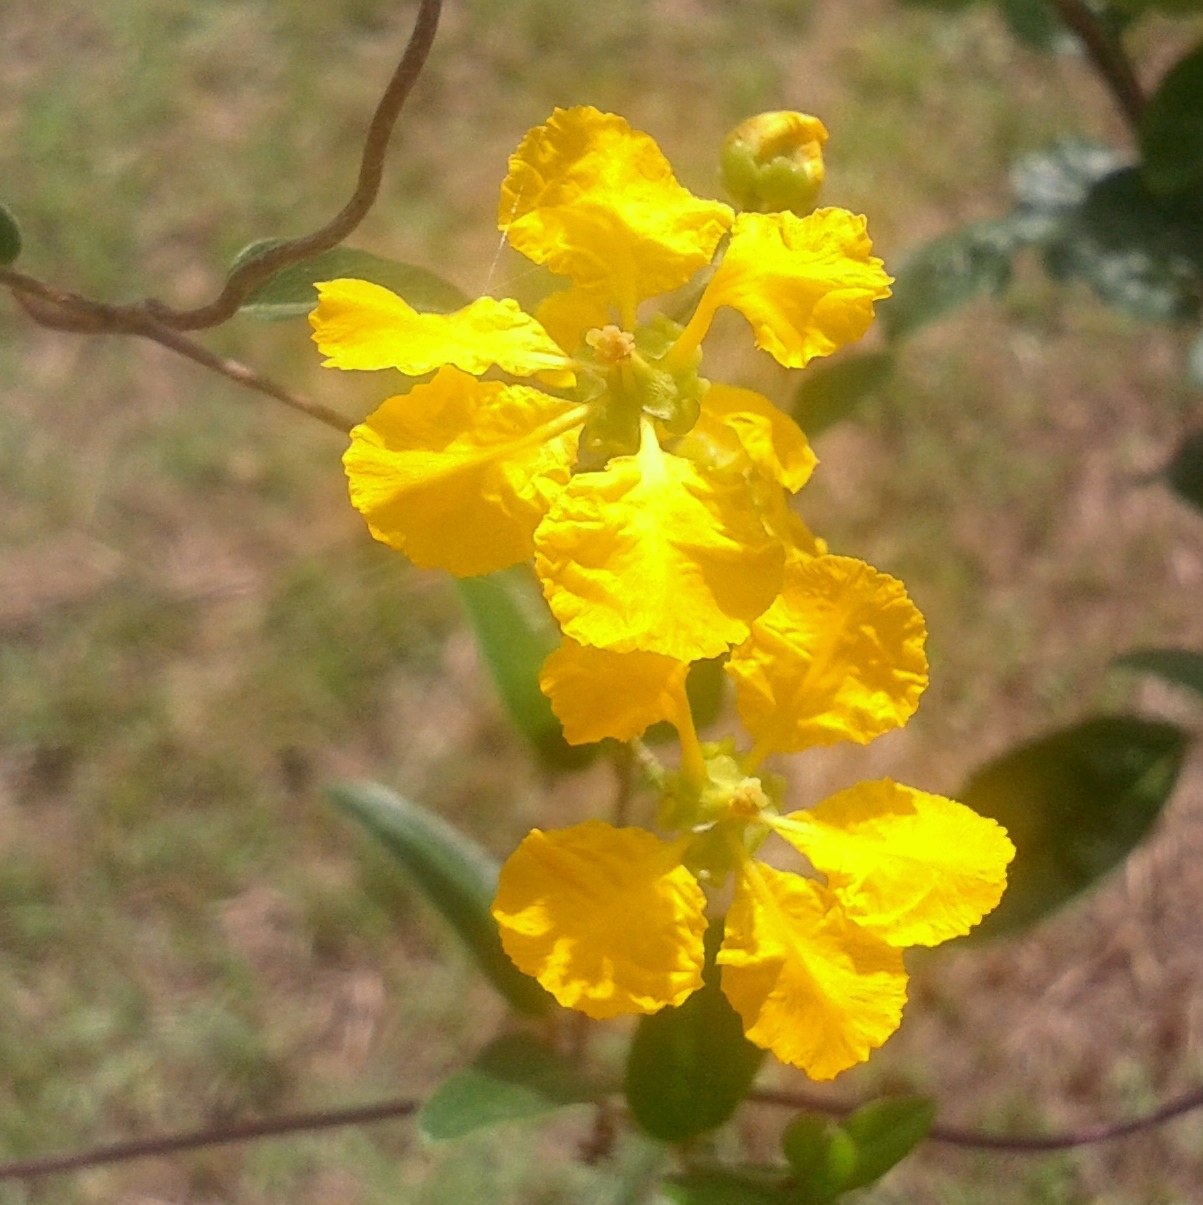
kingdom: Plantae
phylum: Tracheophyta
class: Magnoliopsida
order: Malpighiales
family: Malpighiaceae
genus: Janusia
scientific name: Janusia guaranitica
